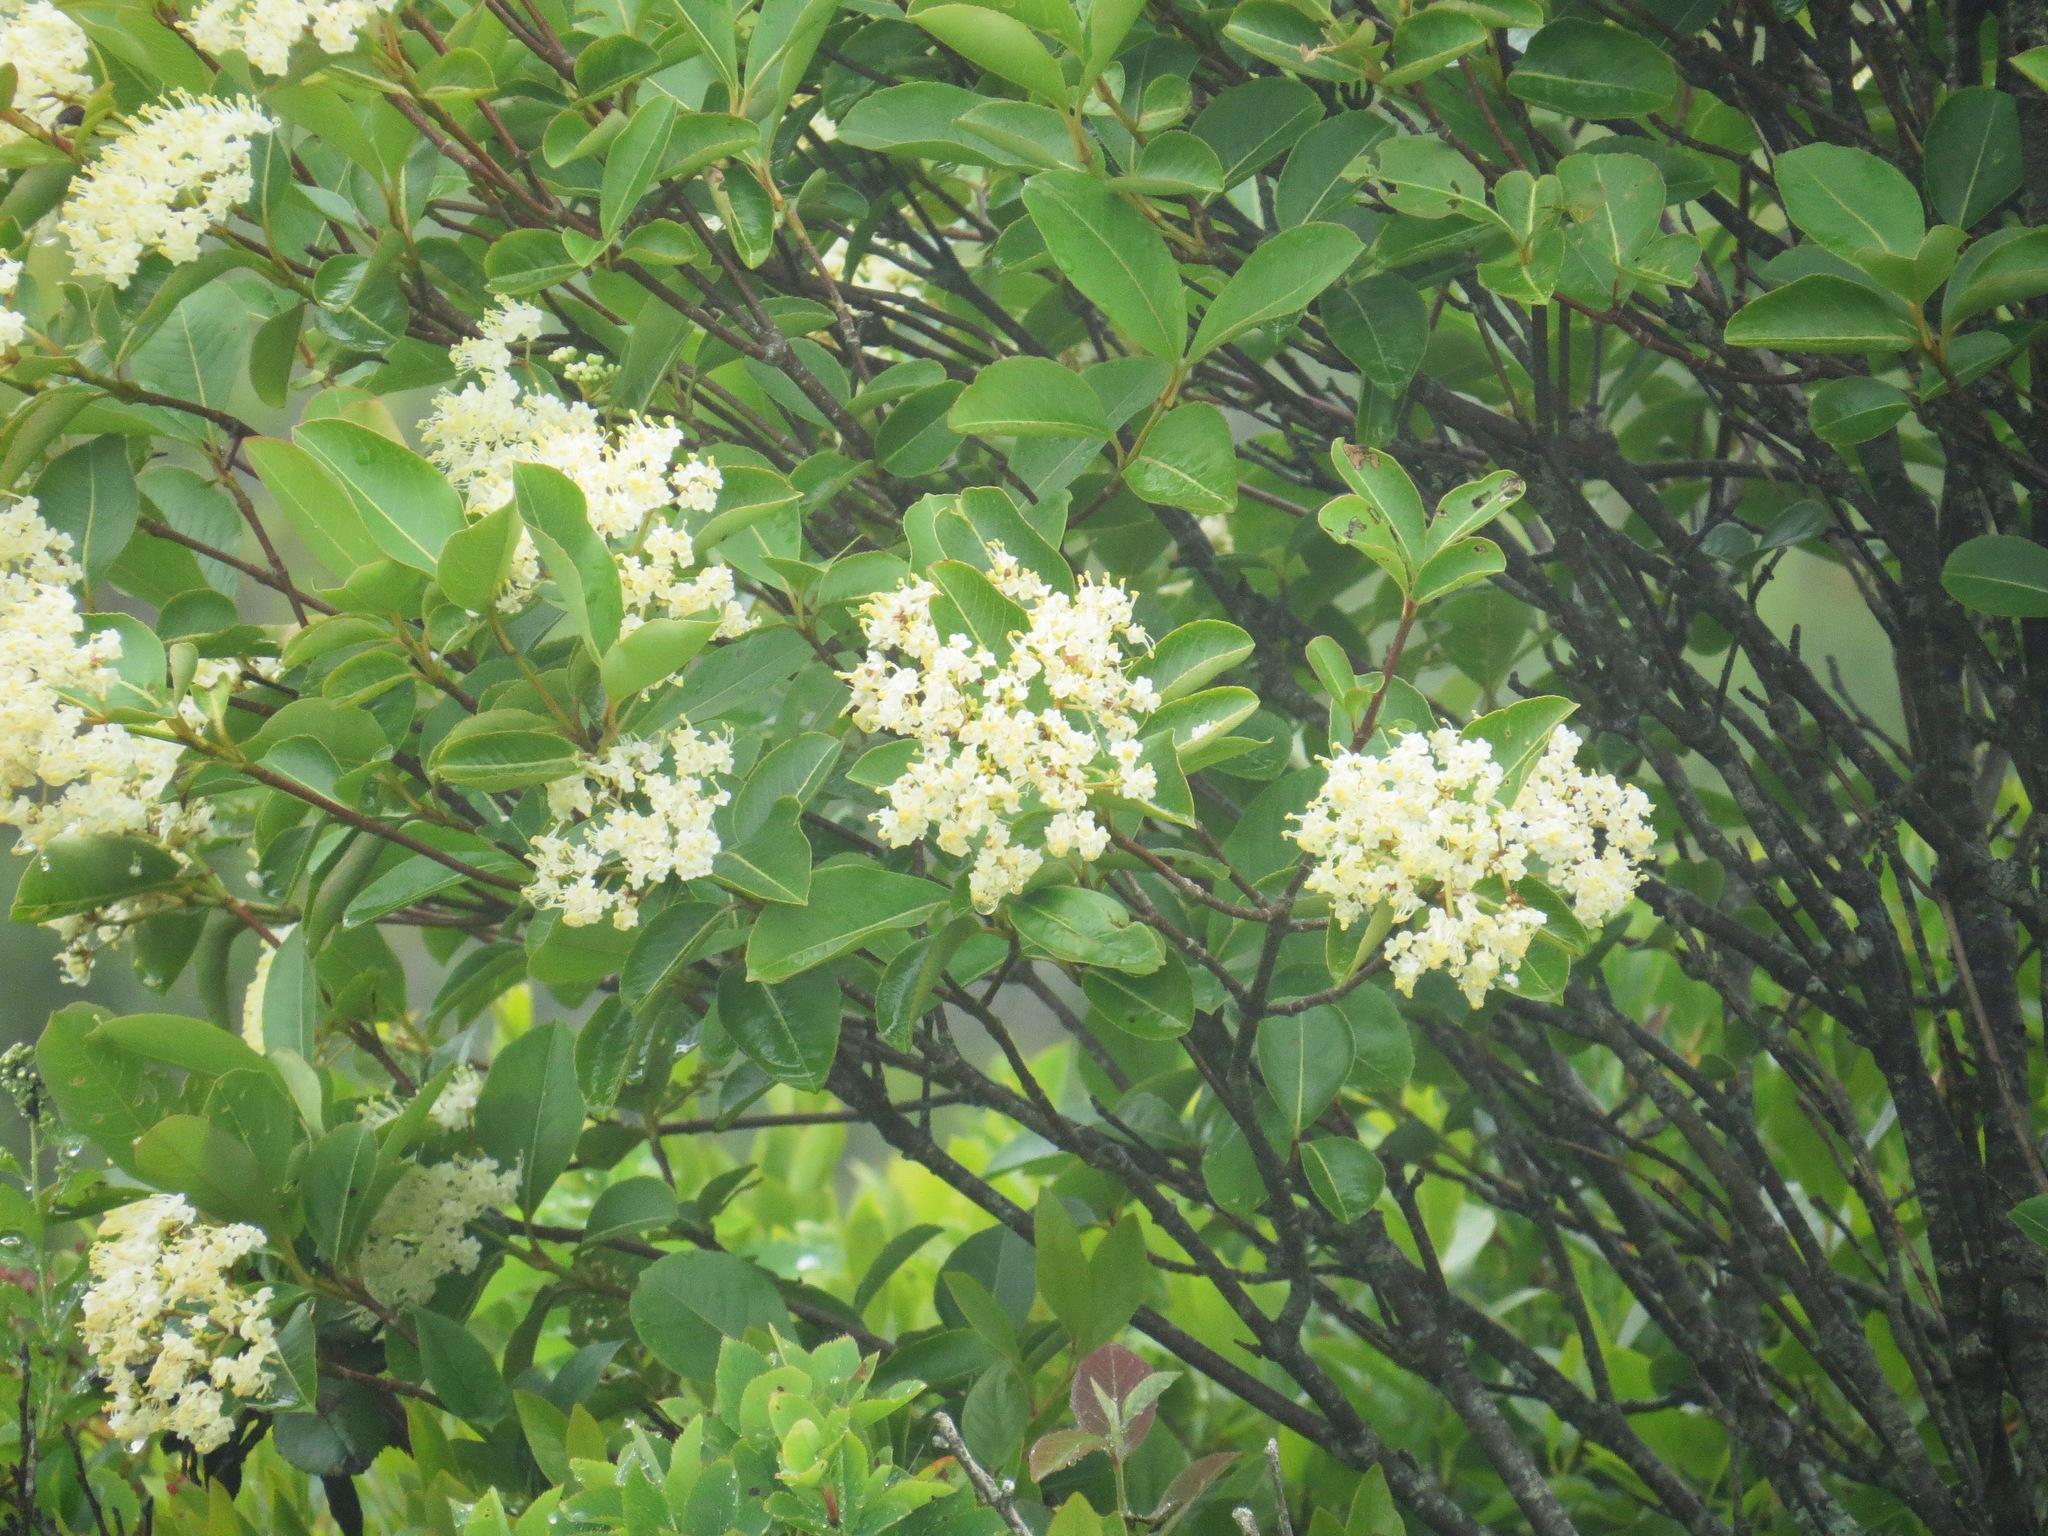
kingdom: Plantae
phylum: Tracheophyta
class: Magnoliopsida
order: Dipsacales
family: Viburnaceae
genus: Viburnum
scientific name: Viburnum cassinoides
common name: Swamp haw
